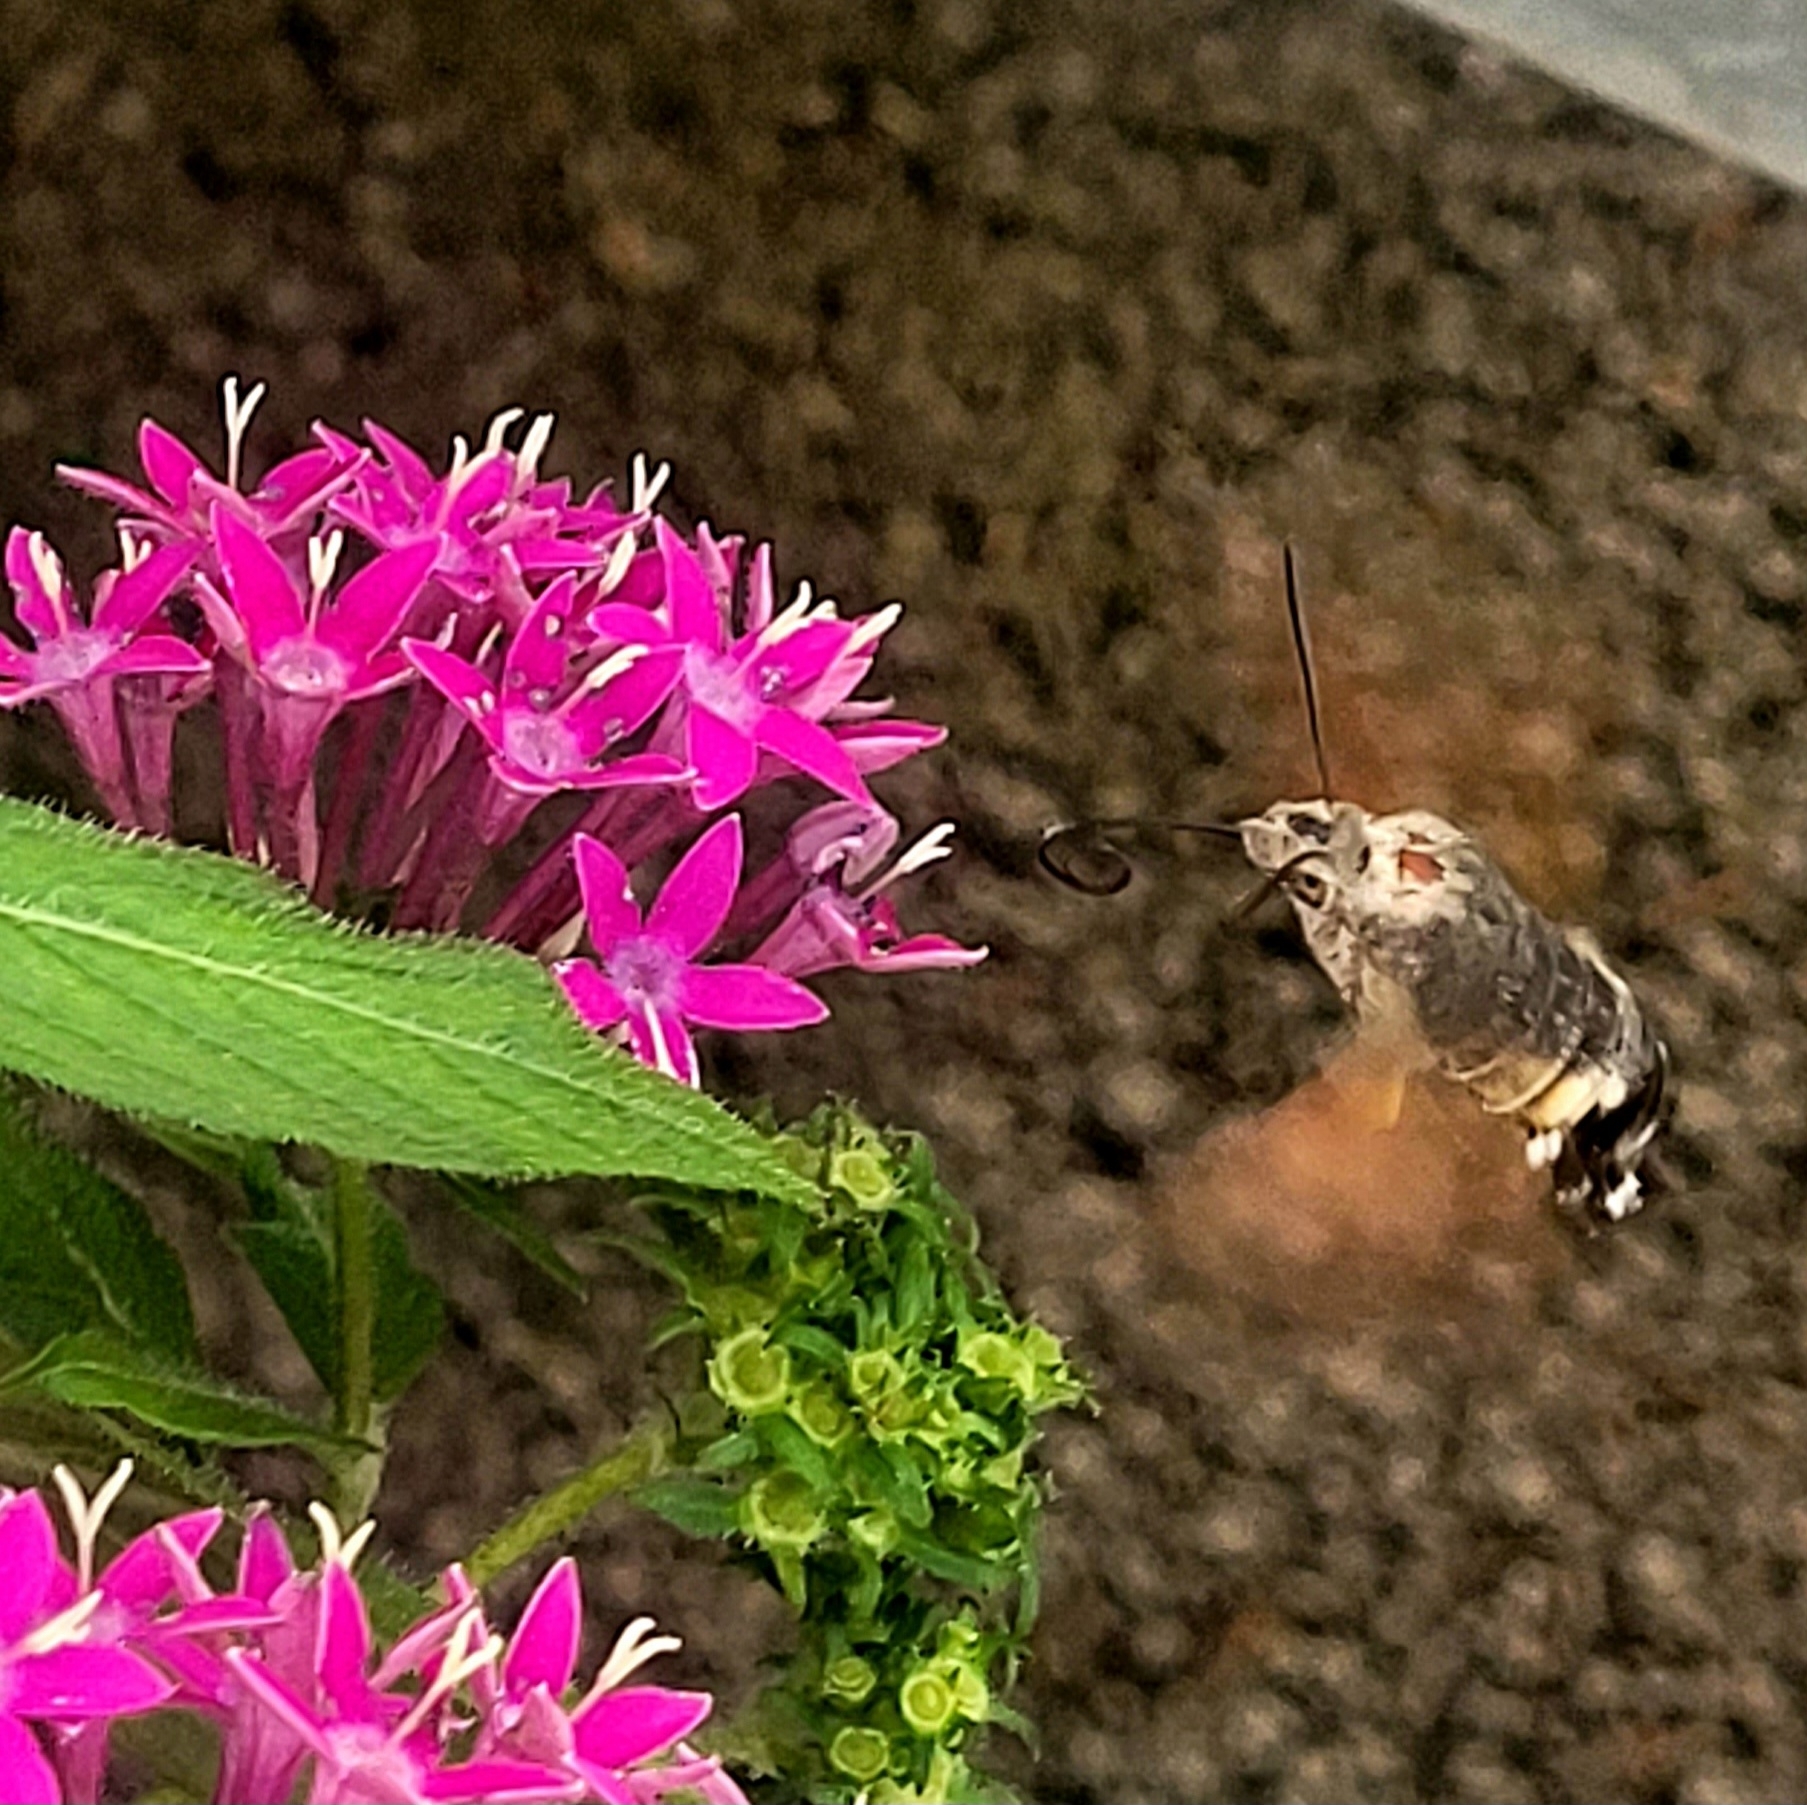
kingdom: Animalia
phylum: Arthropoda
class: Insecta
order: Lepidoptera
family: Sphingidae
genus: Macroglossum
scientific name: Macroglossum stellatarum
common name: Humming-bird hawk-moth
